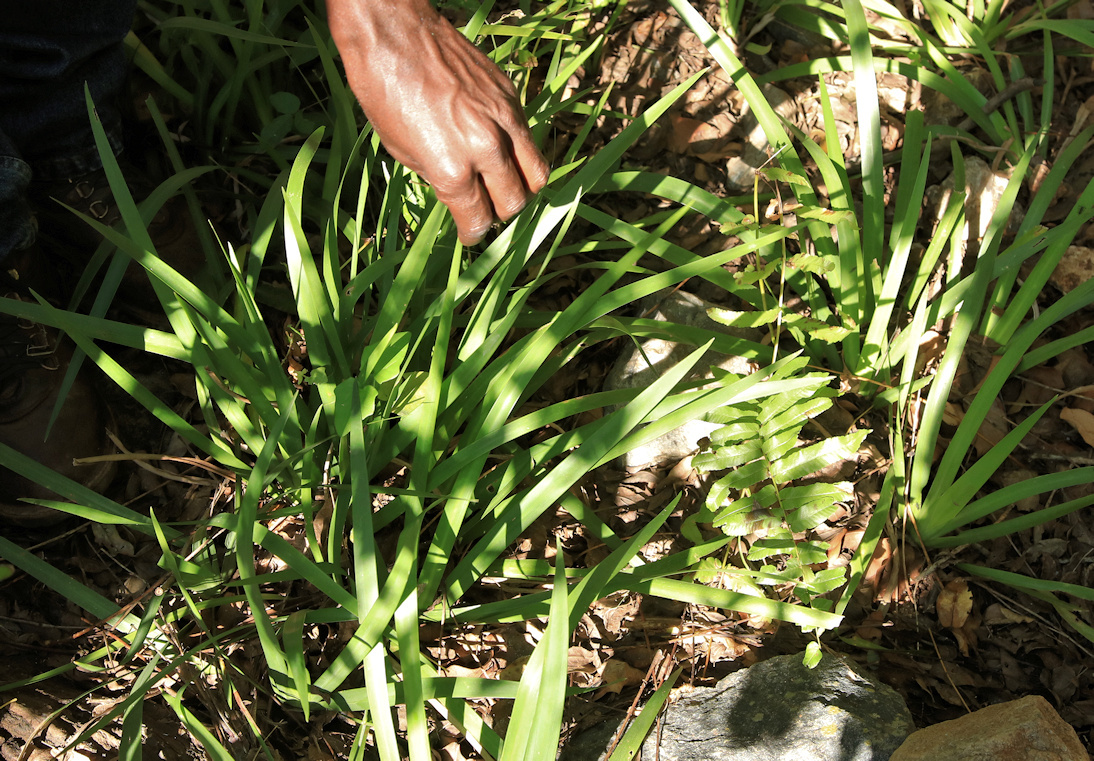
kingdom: Plantae
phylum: Tracheophyta
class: Liliopsida
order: Asparagales
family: Iridaceae
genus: Dietes
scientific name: Dietes iridioides
